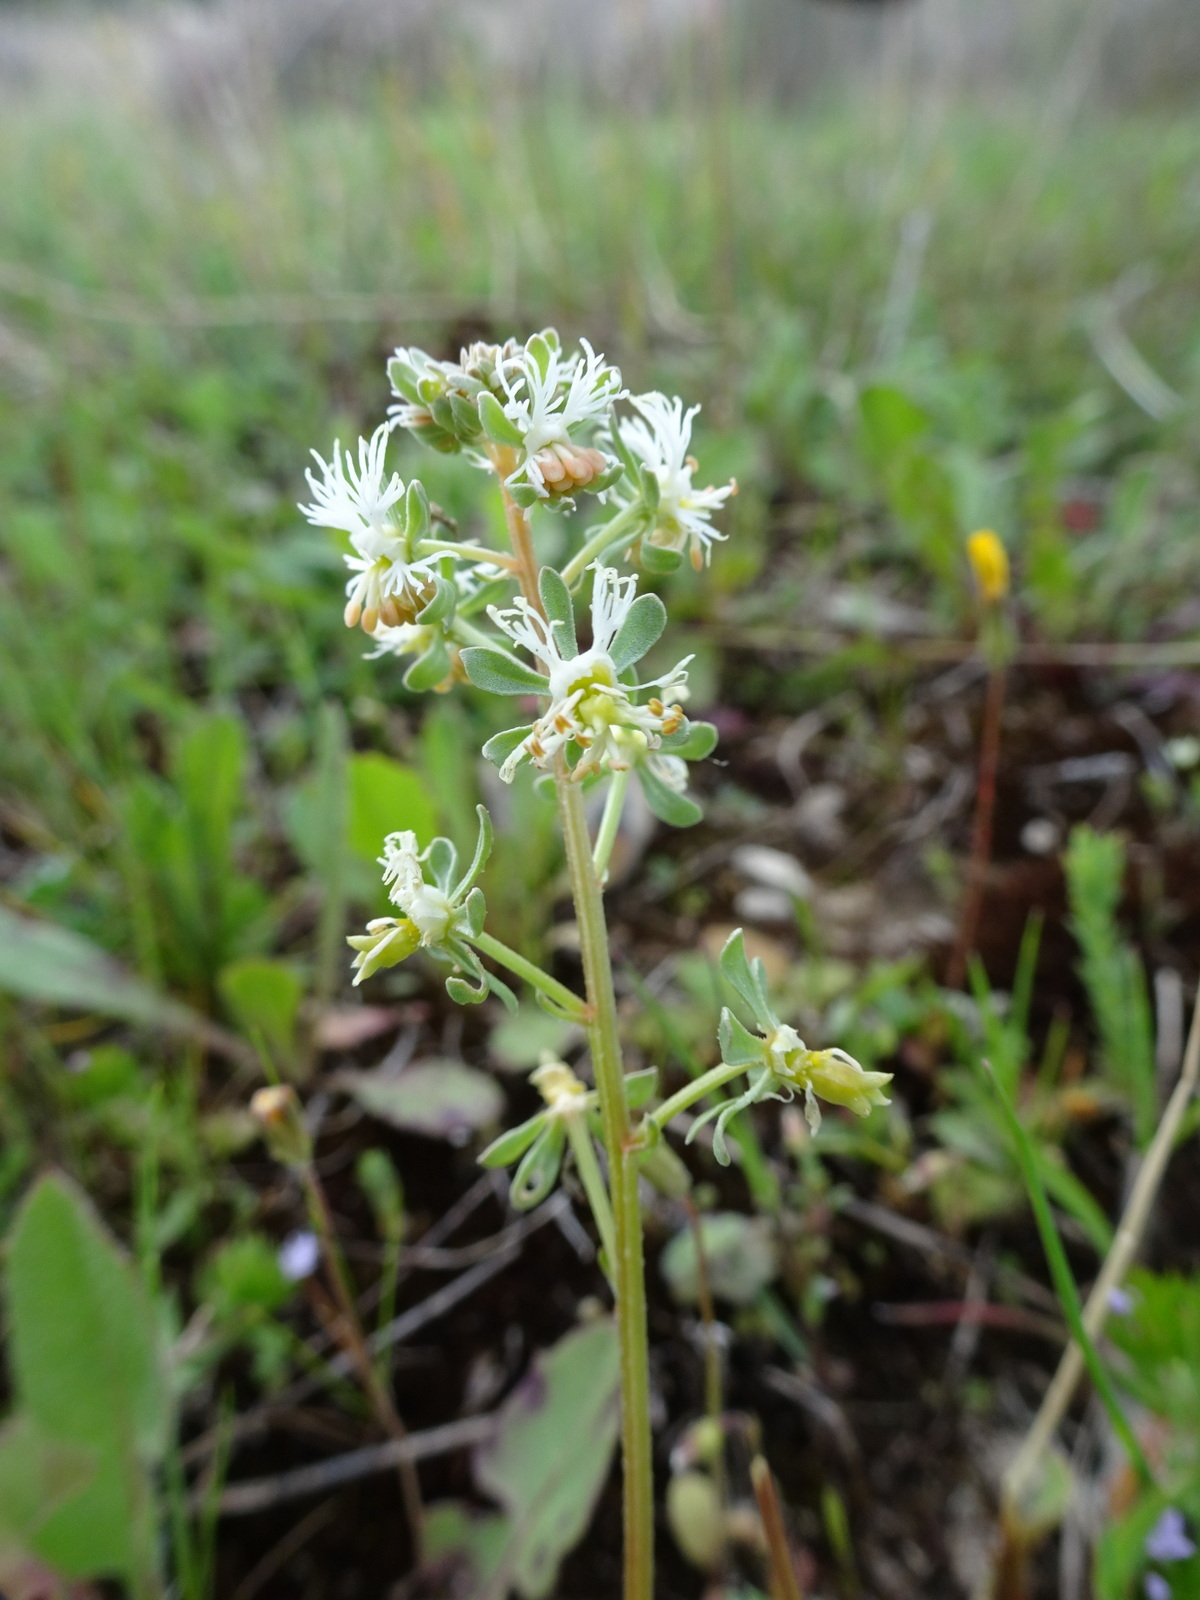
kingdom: Plantae
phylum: Tracheophyta
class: Magnoliopsida
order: Brassicales
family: Resedaceae
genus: Reseda
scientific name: Reseda phyteuma
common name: Corn mignonette
